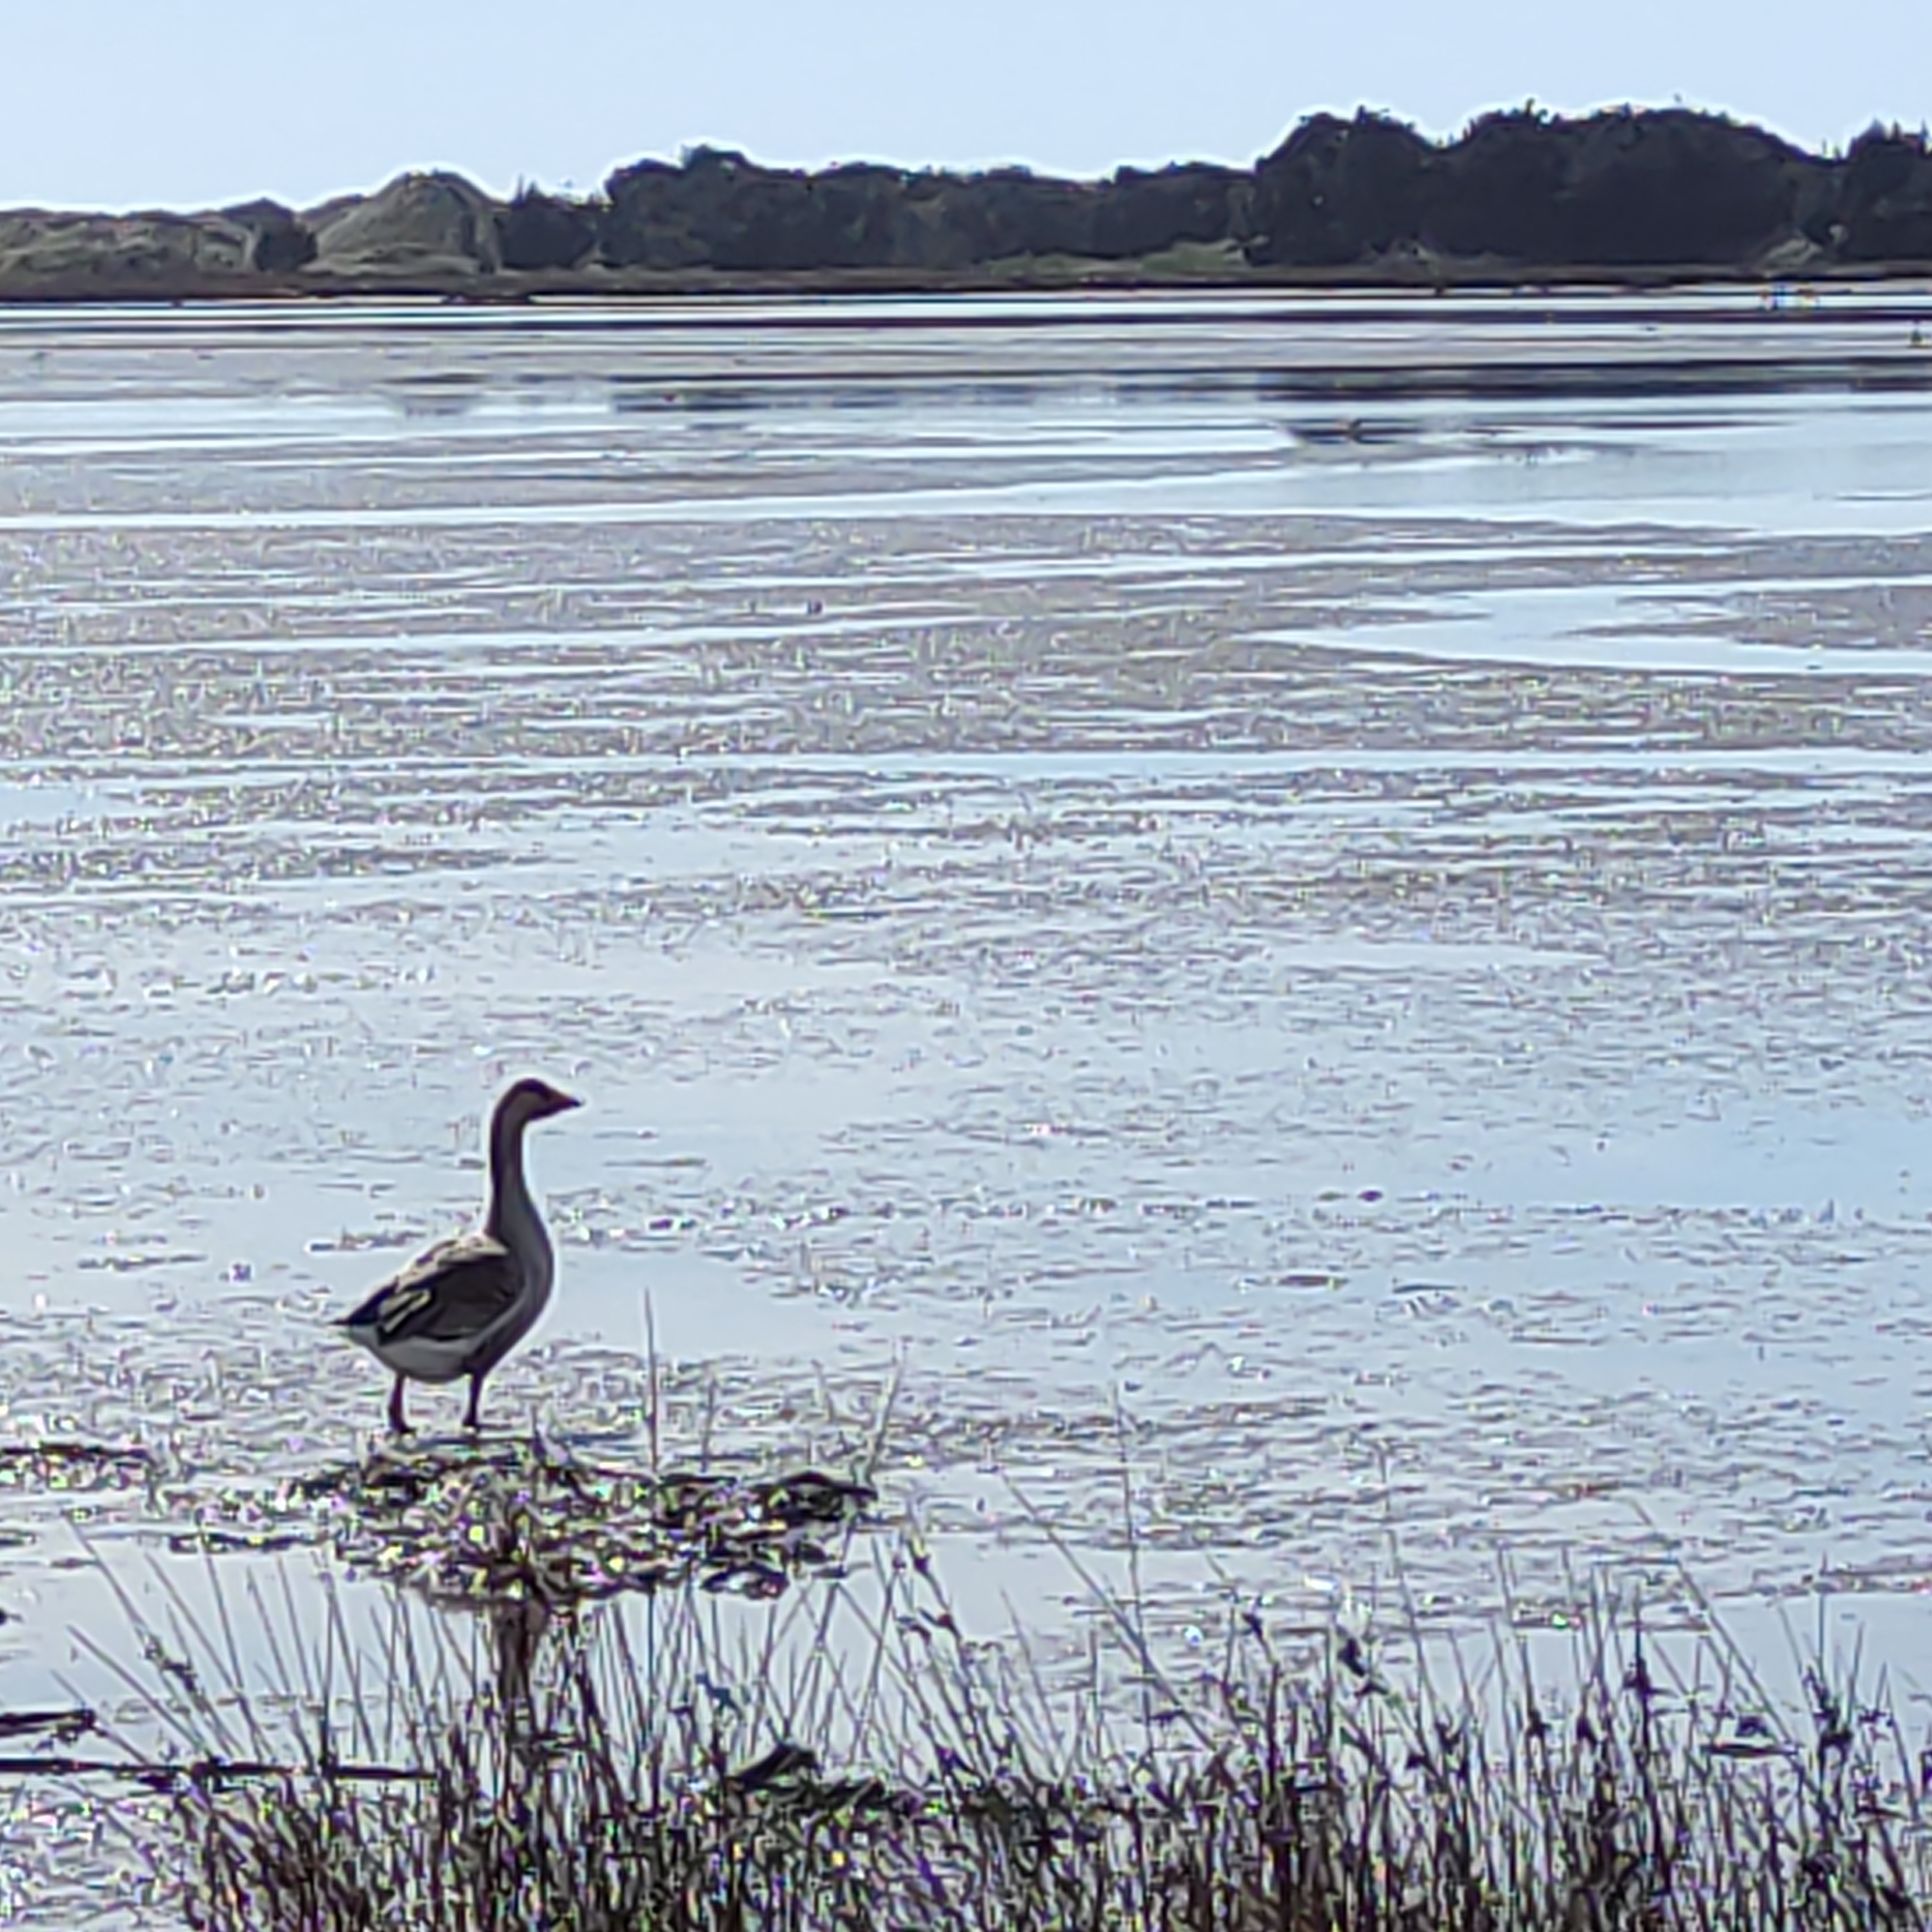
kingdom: Animalia
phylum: Chordata
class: Aves
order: Anseriformes
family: Anatidae
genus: Anser
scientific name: Anser anser
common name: Greylag goose
